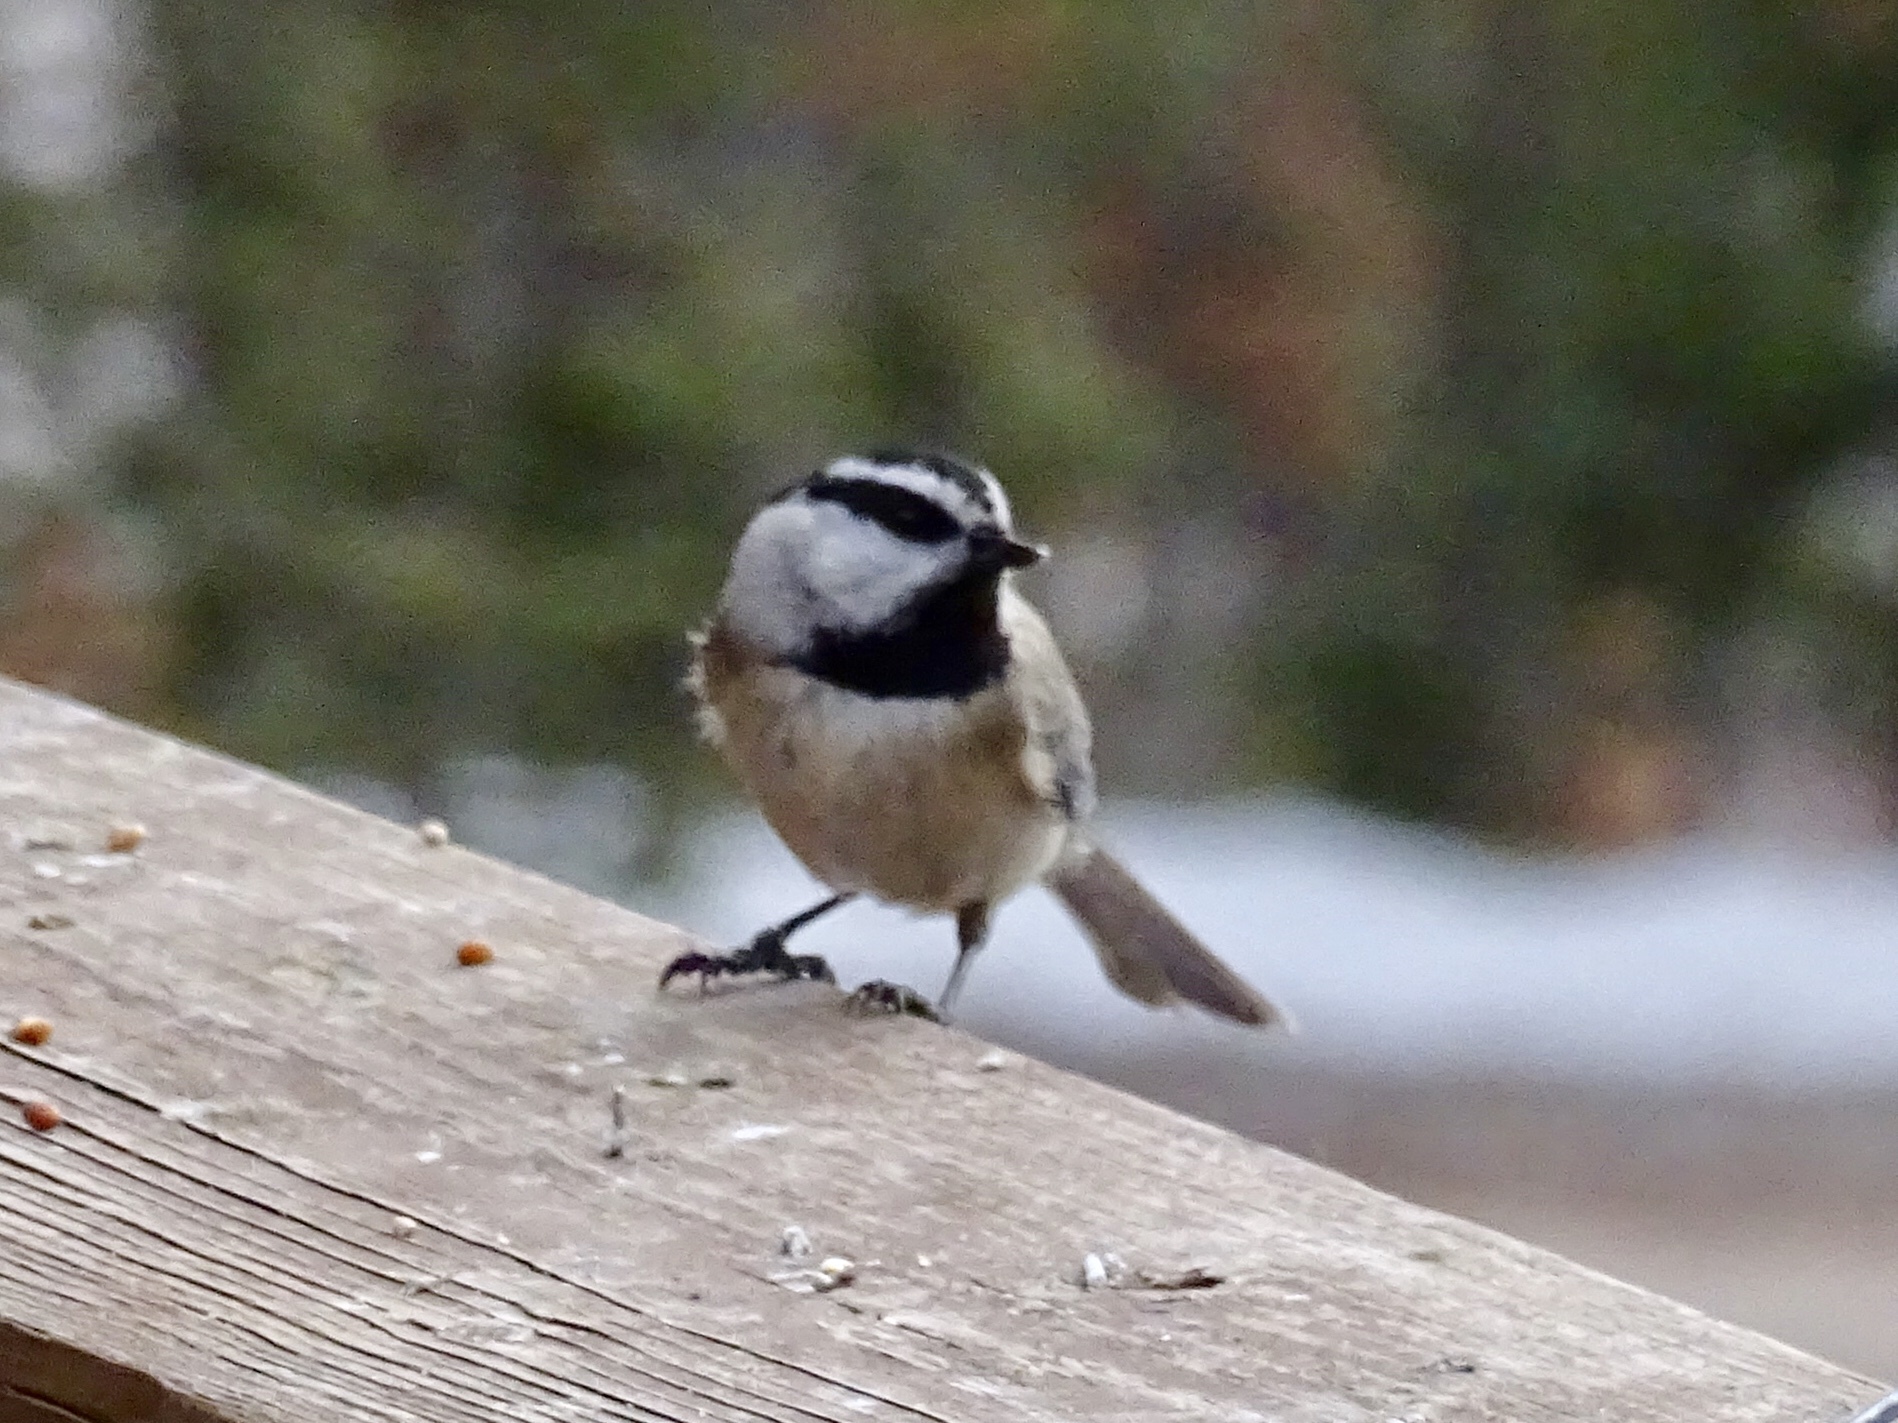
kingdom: Animalia
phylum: Chordata
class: Aves
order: Passeriformes
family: Paridae
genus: Poecile
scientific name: Poecile gambeli
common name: Mountain chickadee
